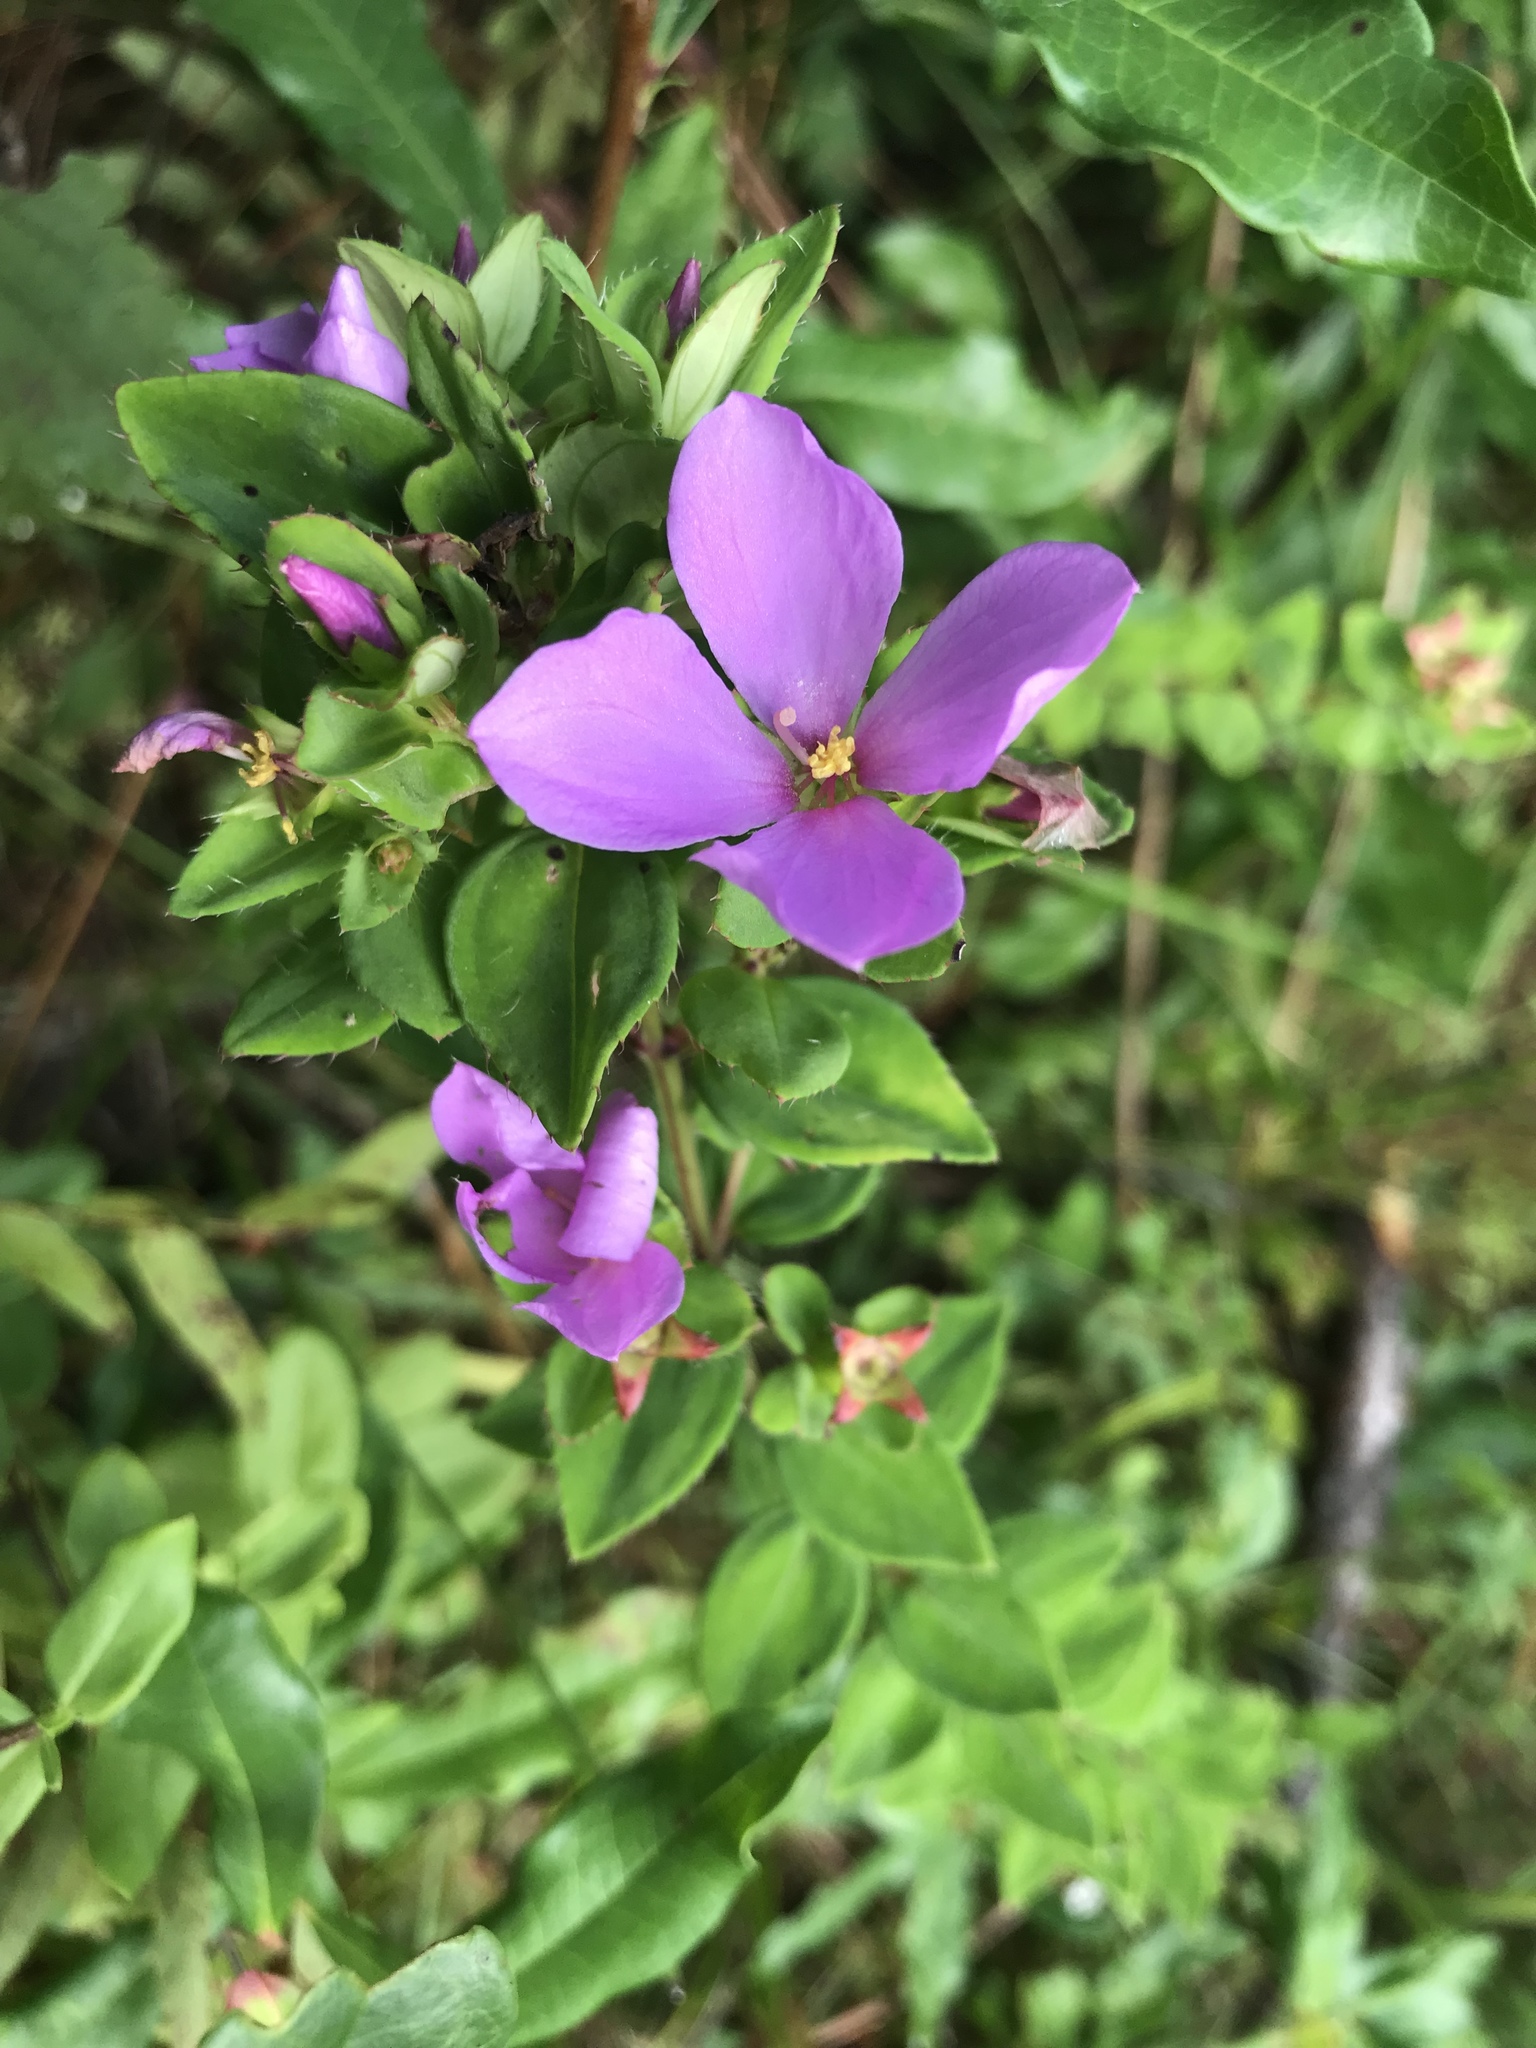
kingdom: Plantae
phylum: Tracheophyta
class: Magnoliopsida
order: Myrtales
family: Melastomataceae
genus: Rhexia
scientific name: Rhexia petiolata
